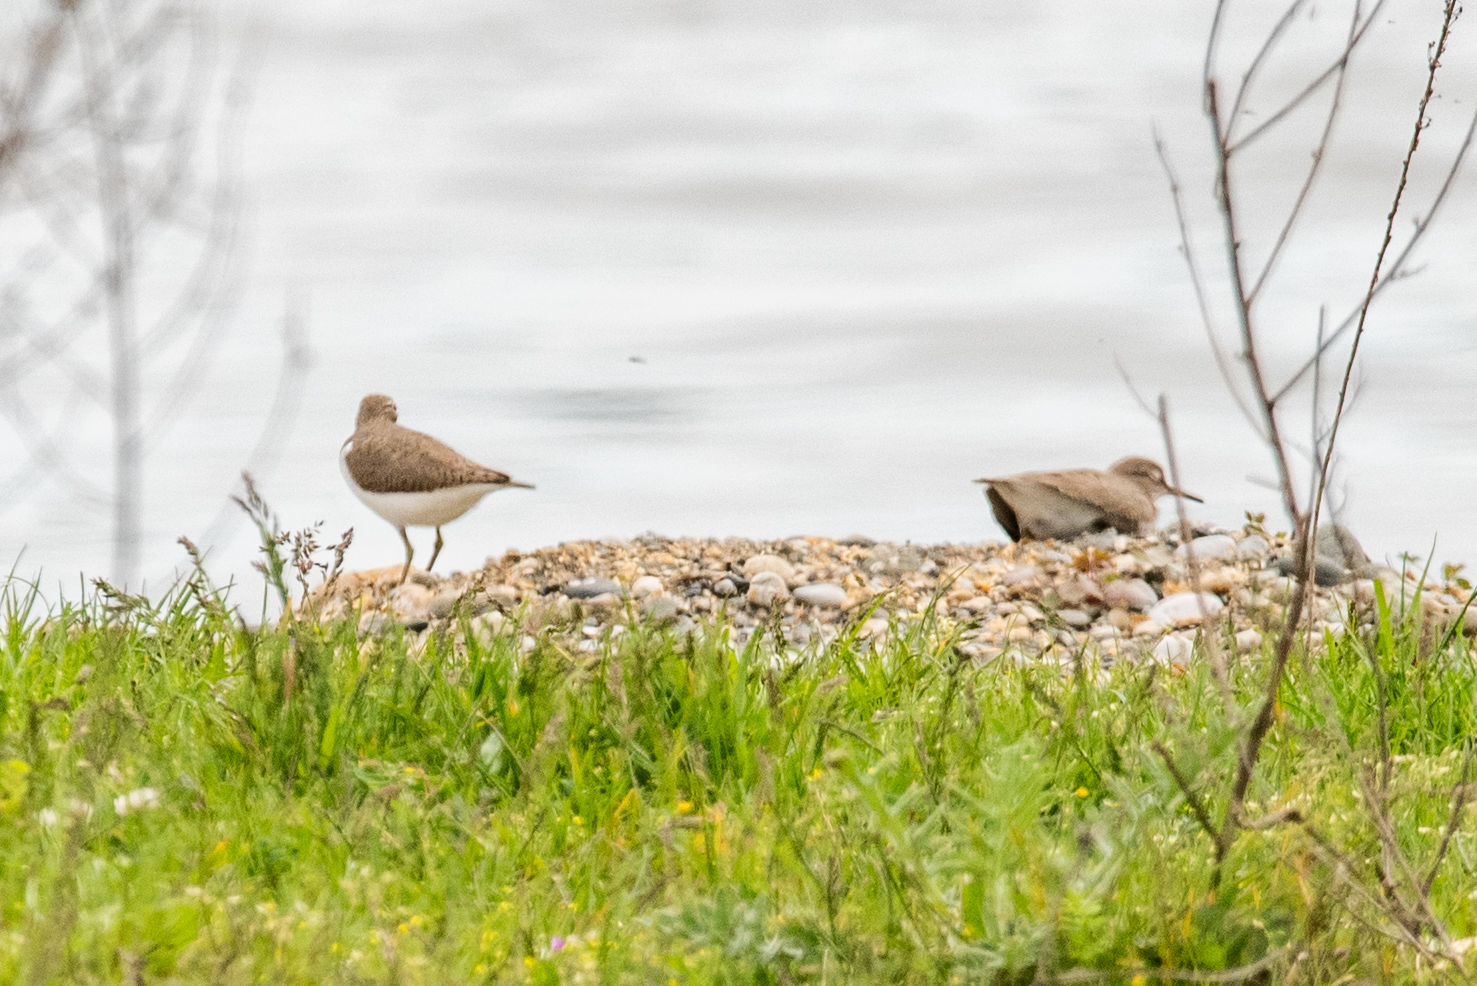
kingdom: Animalia
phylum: Chordata
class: Aves
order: Charadriiformes
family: Scolopacidae
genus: Actitis
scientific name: Actitis hypoleucos
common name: Common sandpiper
